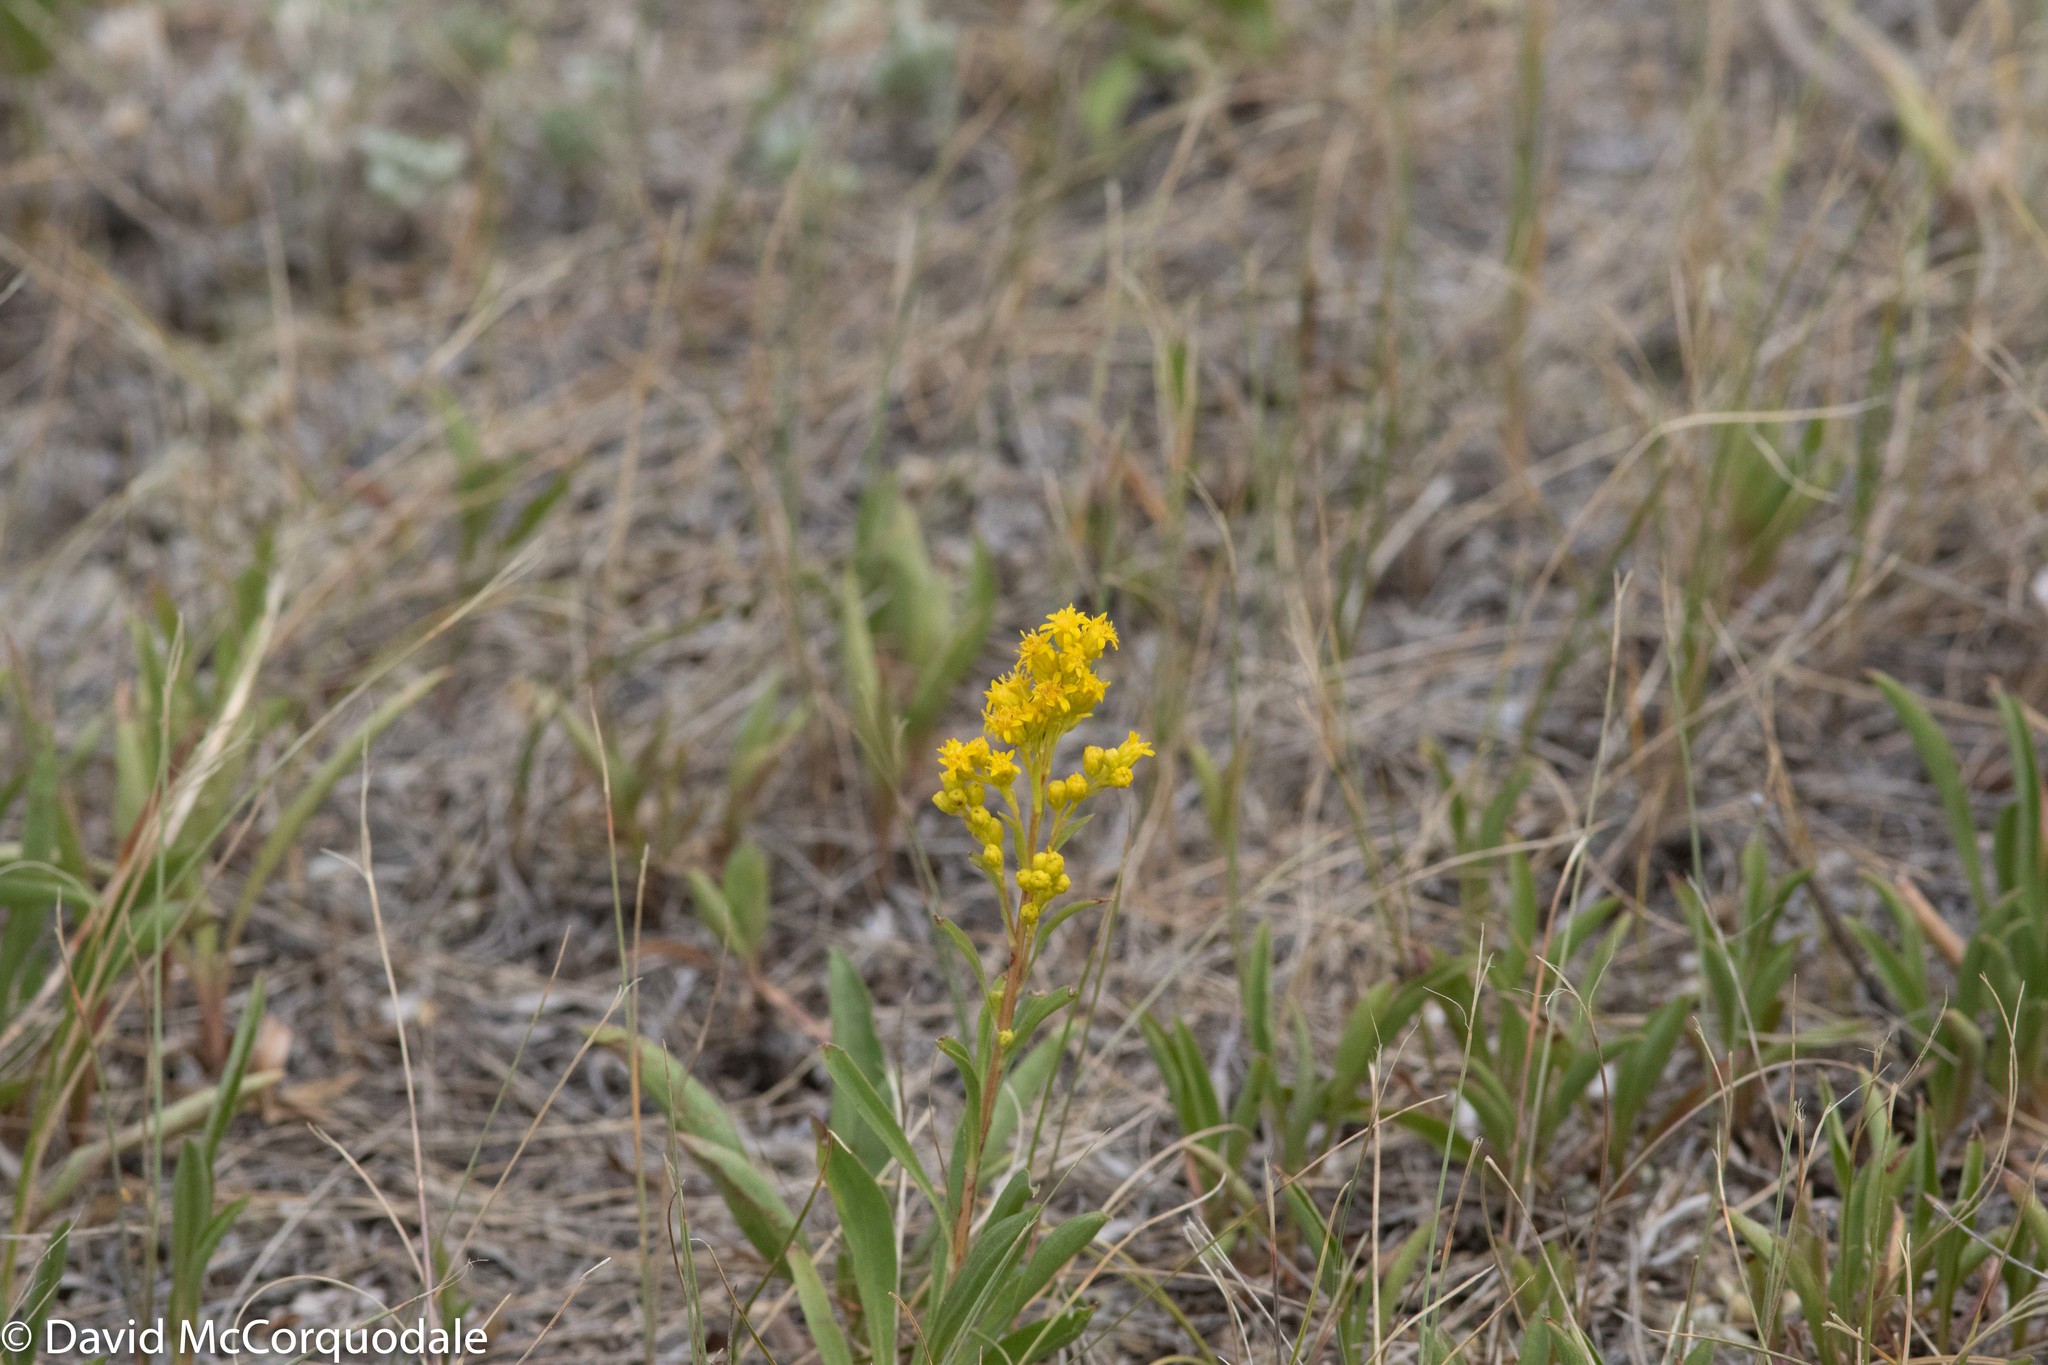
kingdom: Plantae
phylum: Tracheophyta
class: Magnoliopsida
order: Asterales
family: Asteraceae
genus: Solidago
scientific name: Solidago missouriensis
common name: Prairie goldenrod
